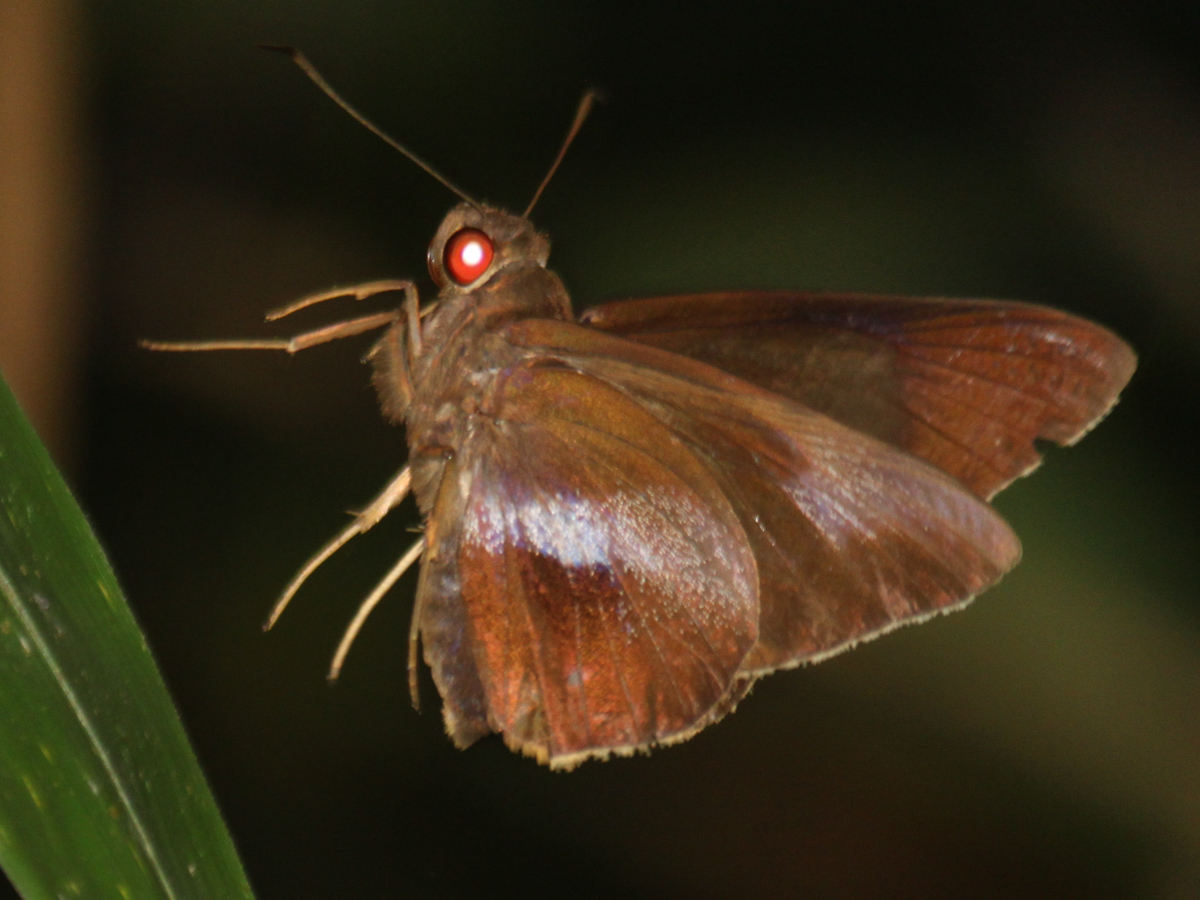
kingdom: Animalia
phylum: Arthropoda
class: Insecta
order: Lepidoptera
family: Hesperiidae
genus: Gangara
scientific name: Gangara lebadea
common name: Banded redeye
